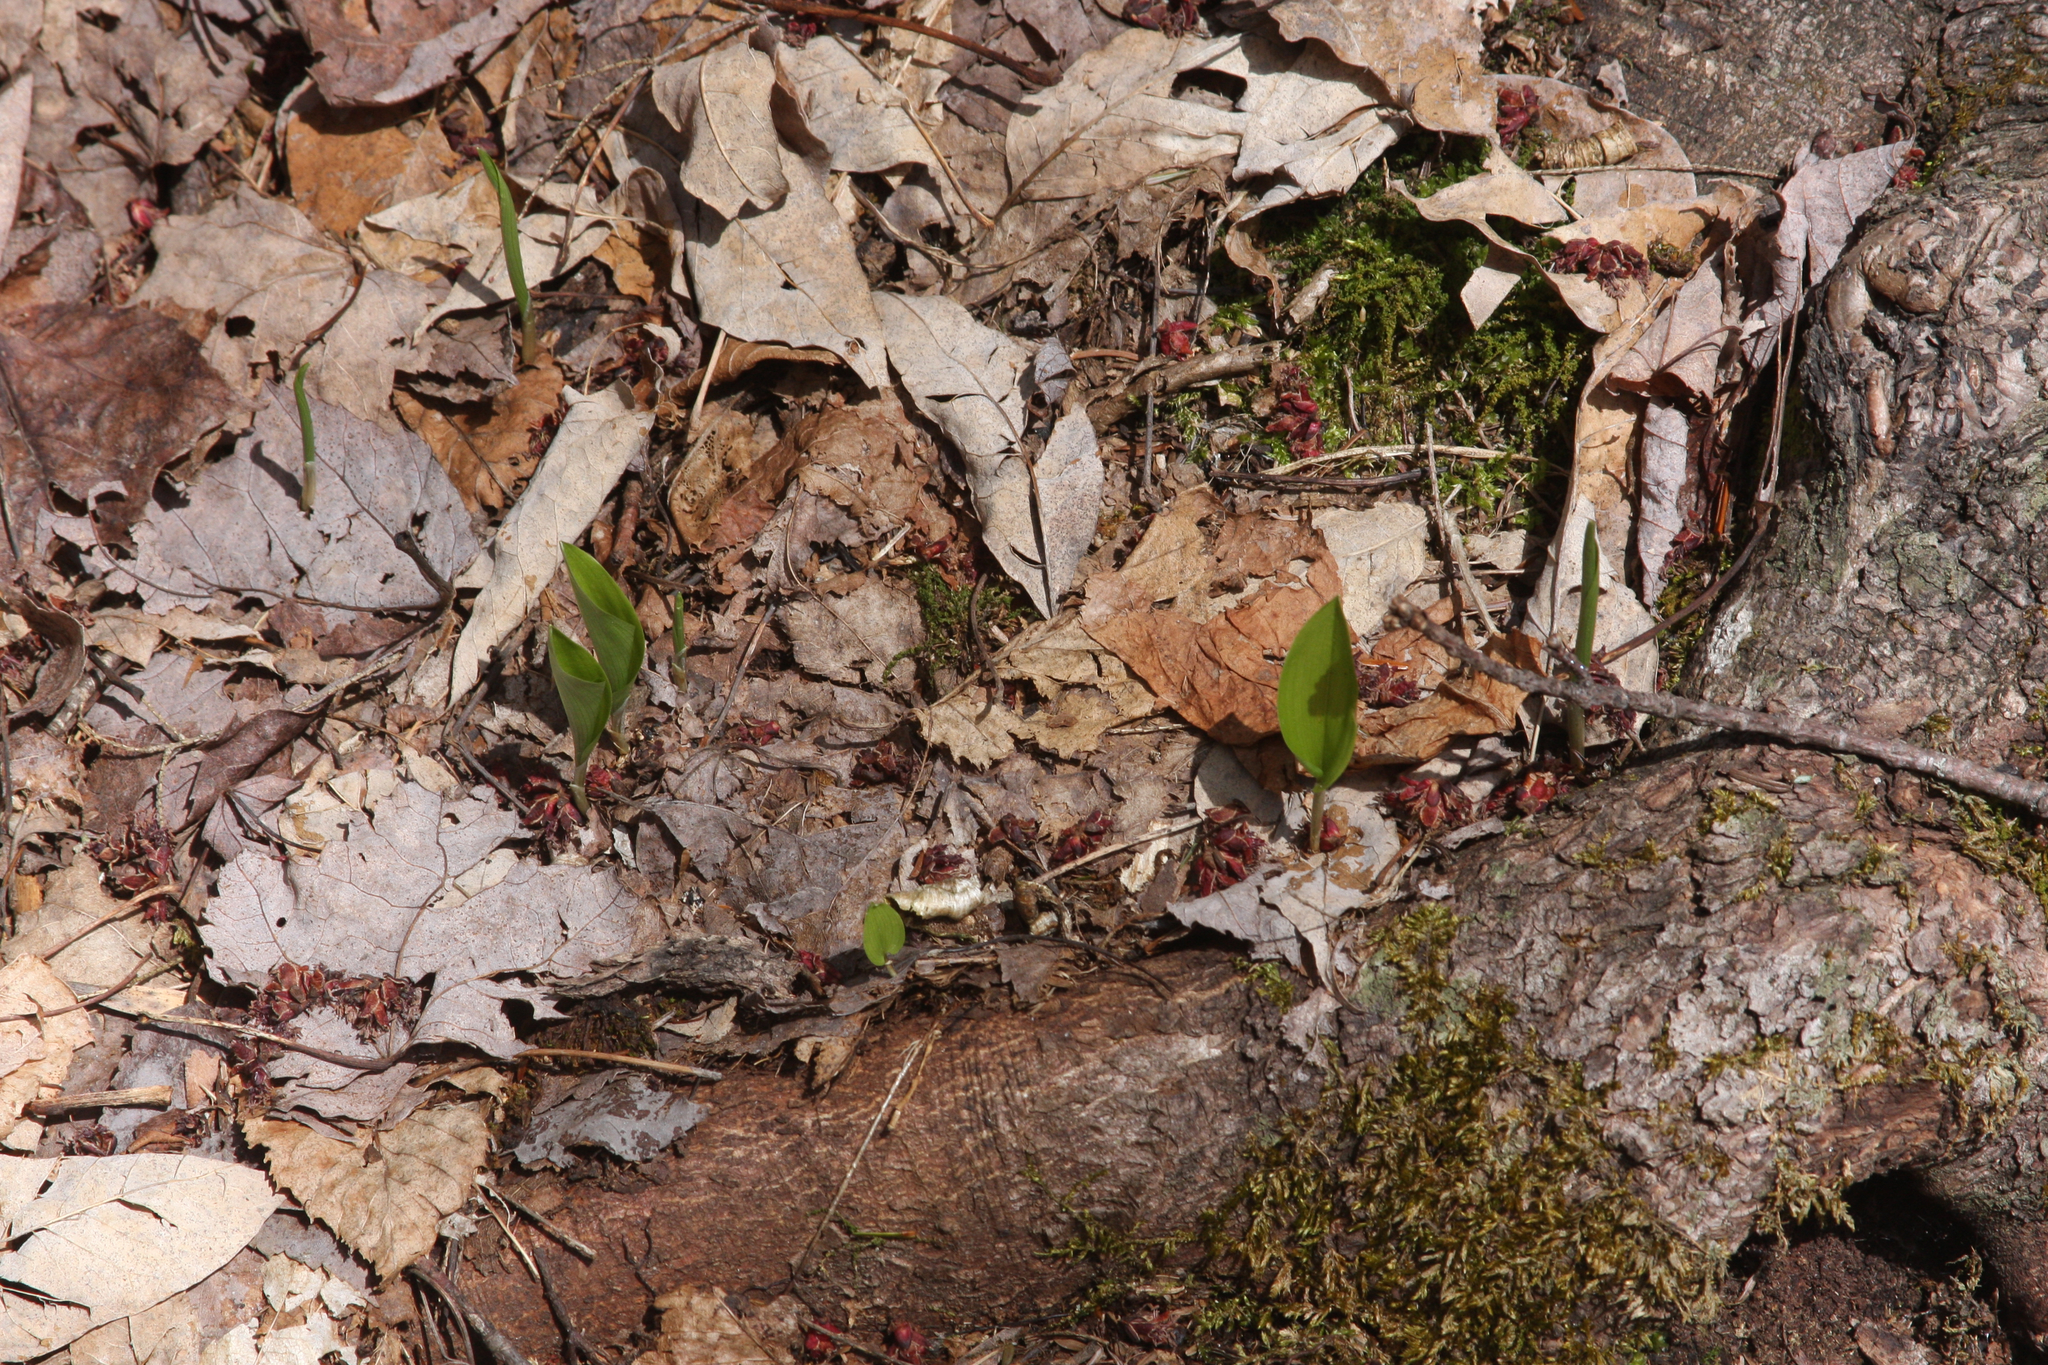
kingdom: Plantae
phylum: Tracheophyta
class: Liliopsida
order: Asparagales
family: Asparagaceae
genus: Maianthemum
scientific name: Maianthemum canadense
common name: False lily-of-the-valley
